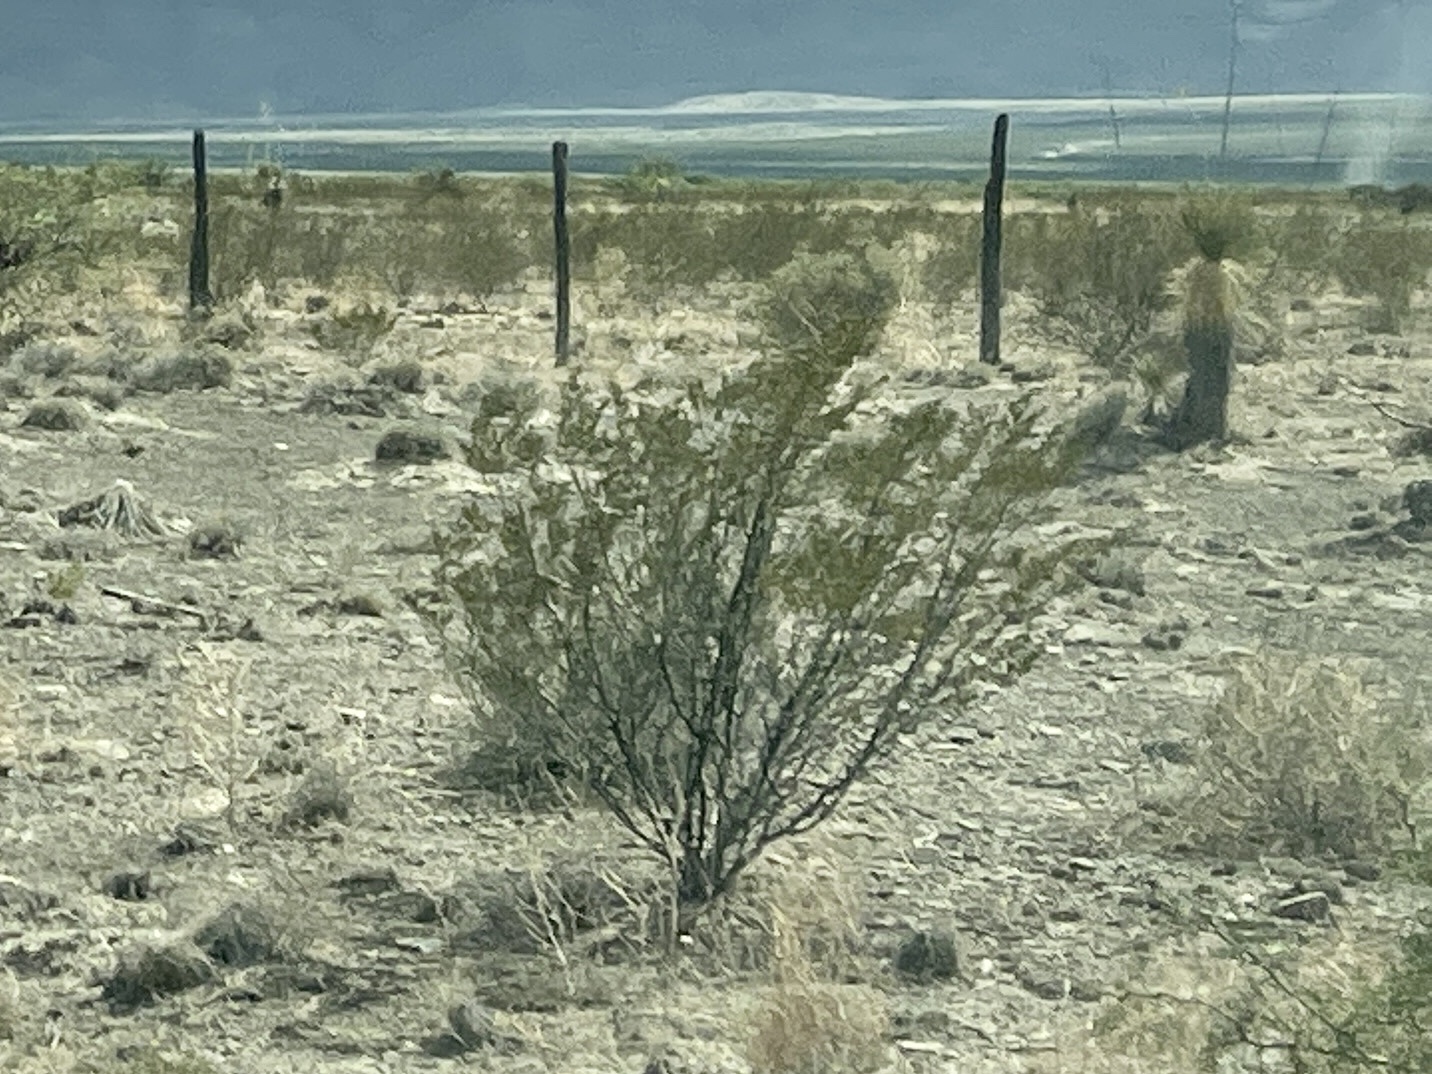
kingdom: Plantae
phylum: Tracheophyta
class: Magnoliopsida
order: Zygophyllales
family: Zygophyllaceae
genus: Larrea
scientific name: Larrea tridentata
